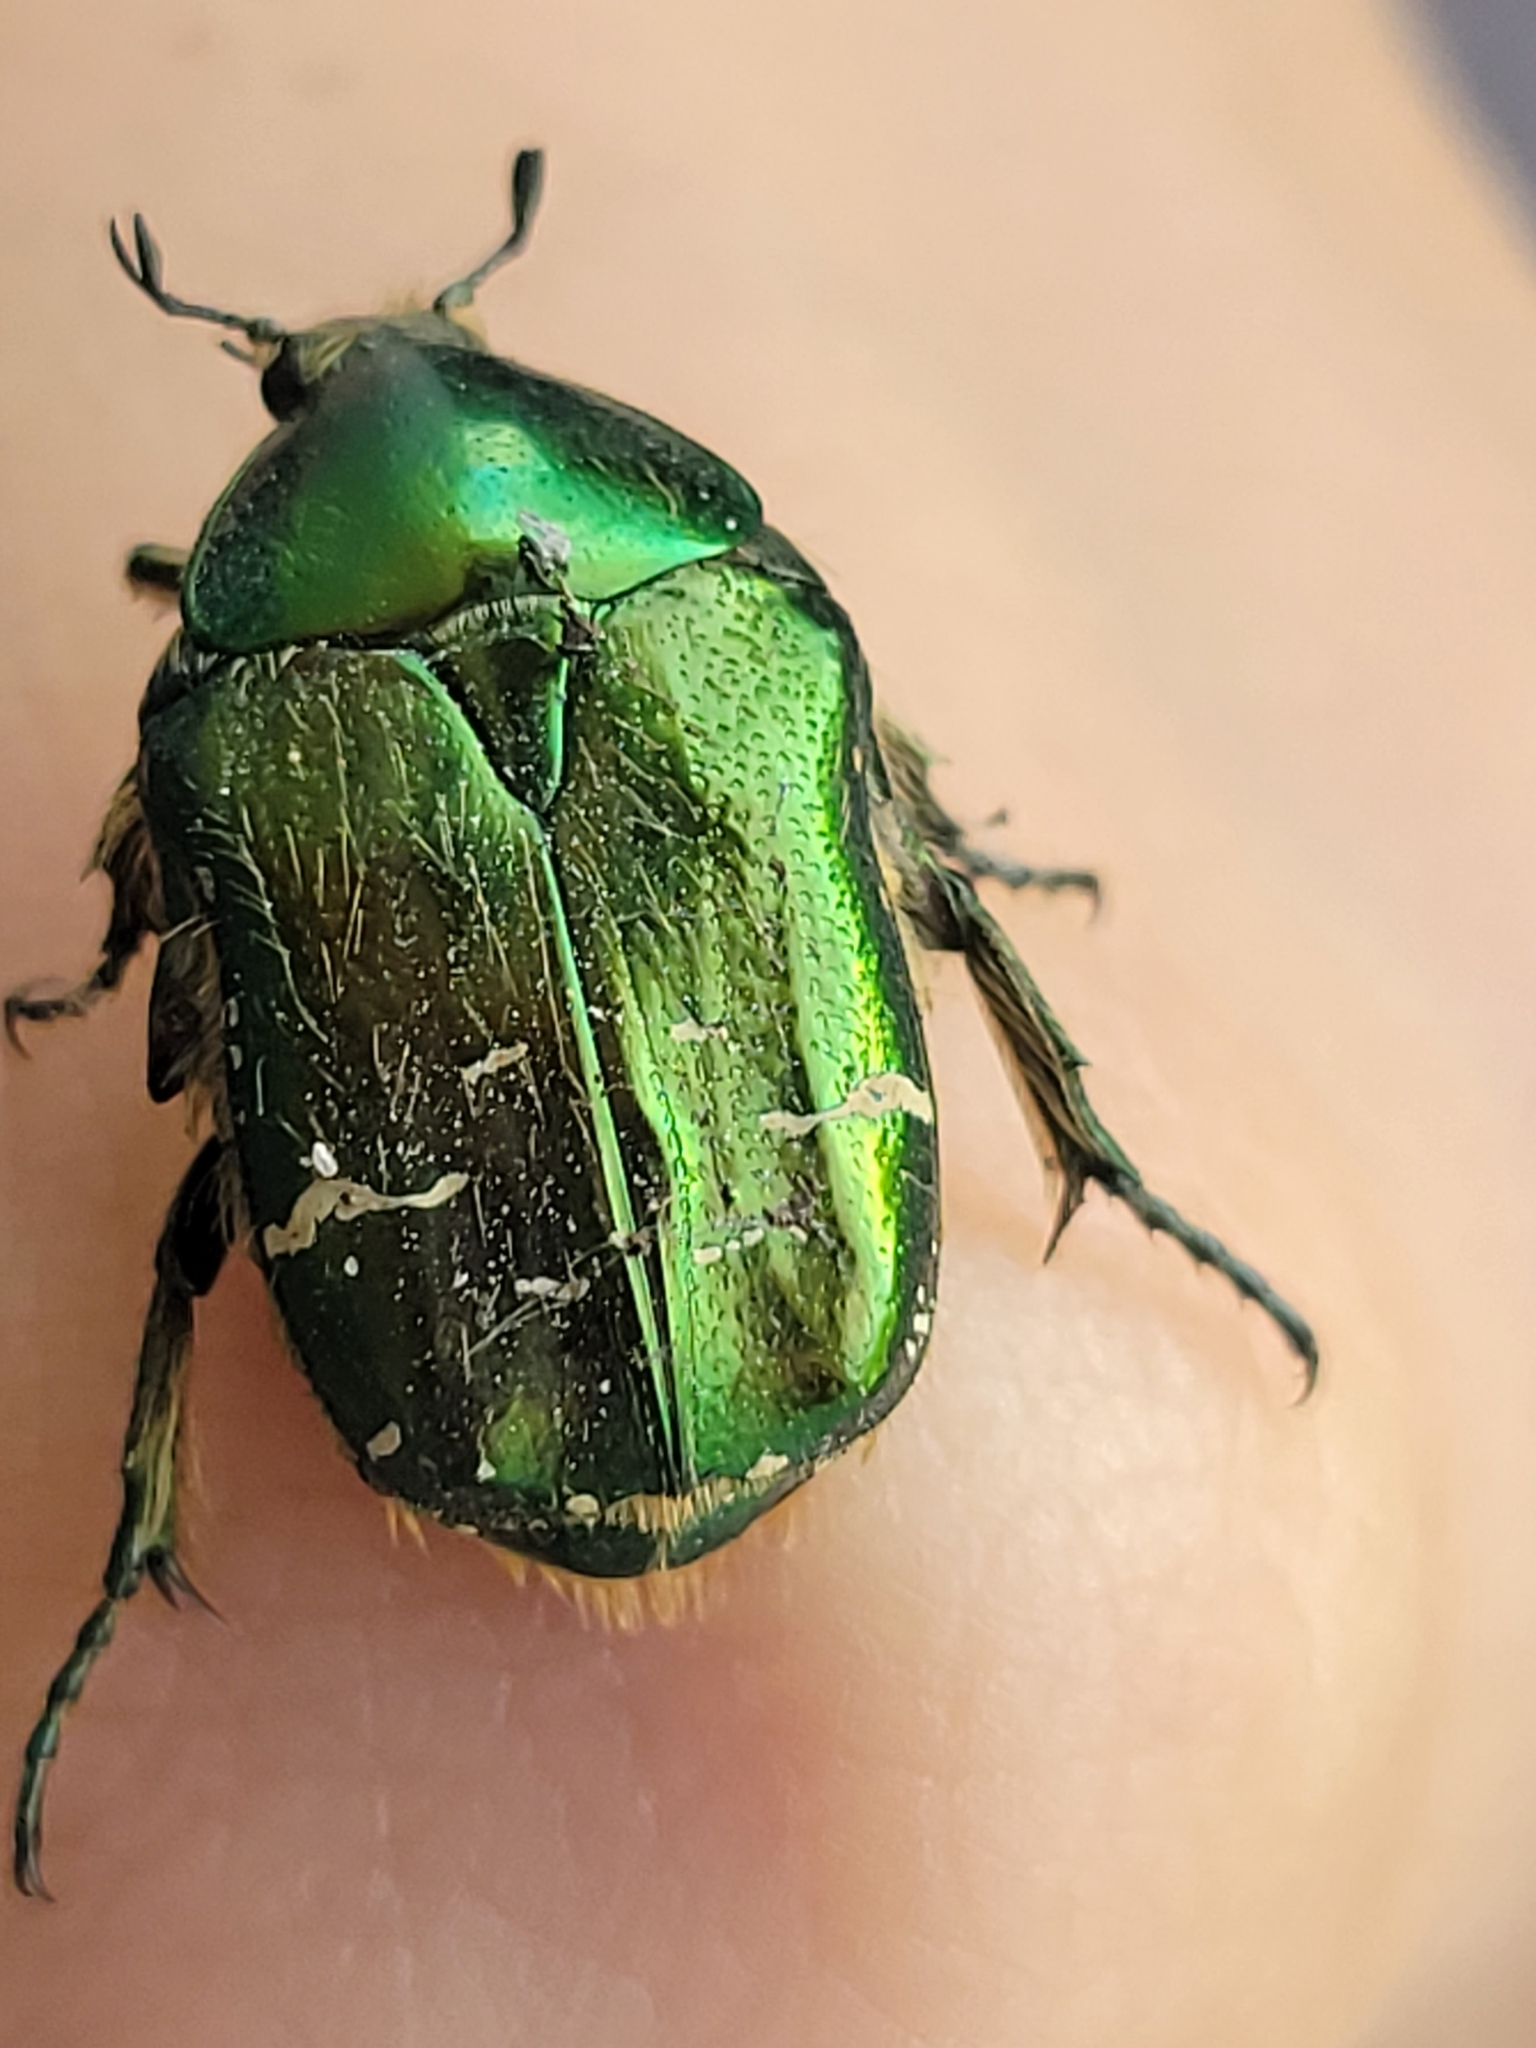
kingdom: Animalia
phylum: Arthropoda
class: Insecta
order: Coleoptera
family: Scarabaeidae
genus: Cetonia
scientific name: Cetonia aurata
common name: Rose chafer
